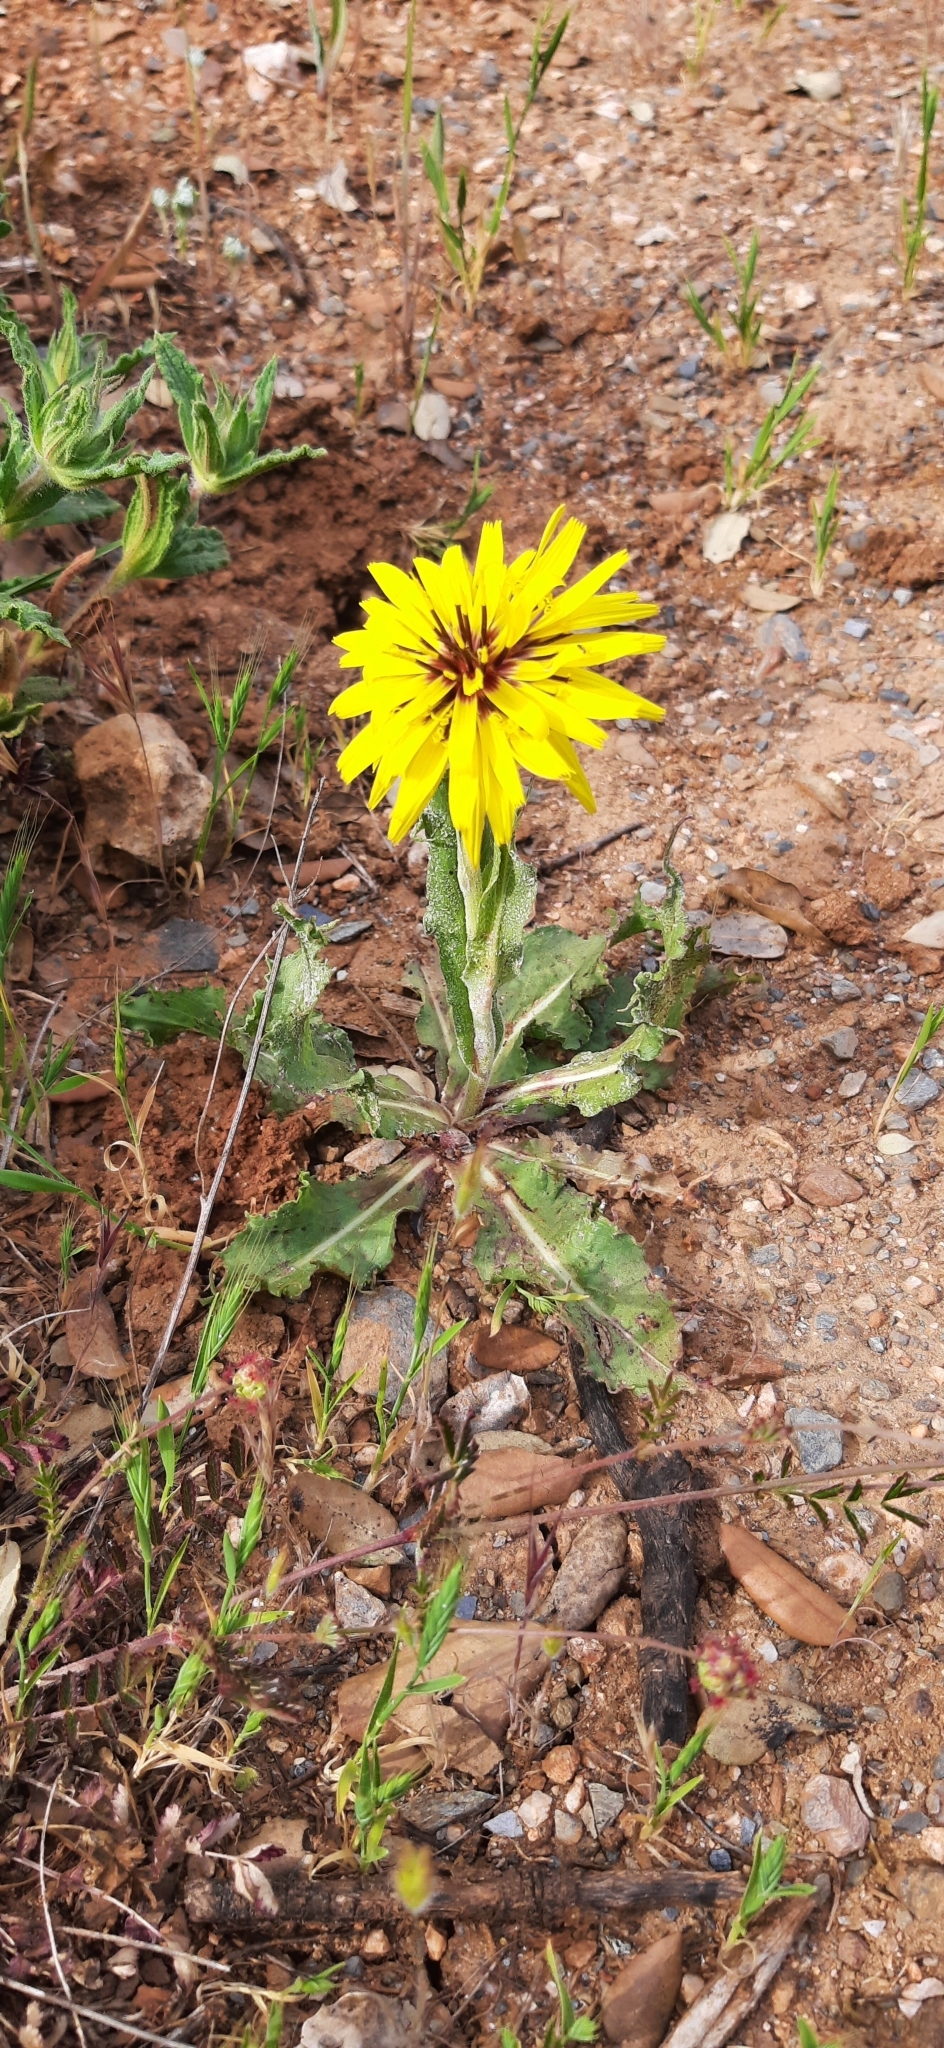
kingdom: Plantae
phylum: Tracheophyta
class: Magnoliopsida
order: Asterales
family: Asteraceae
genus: Pseudopodospermum
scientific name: Pseudopodospermum hispanicum
